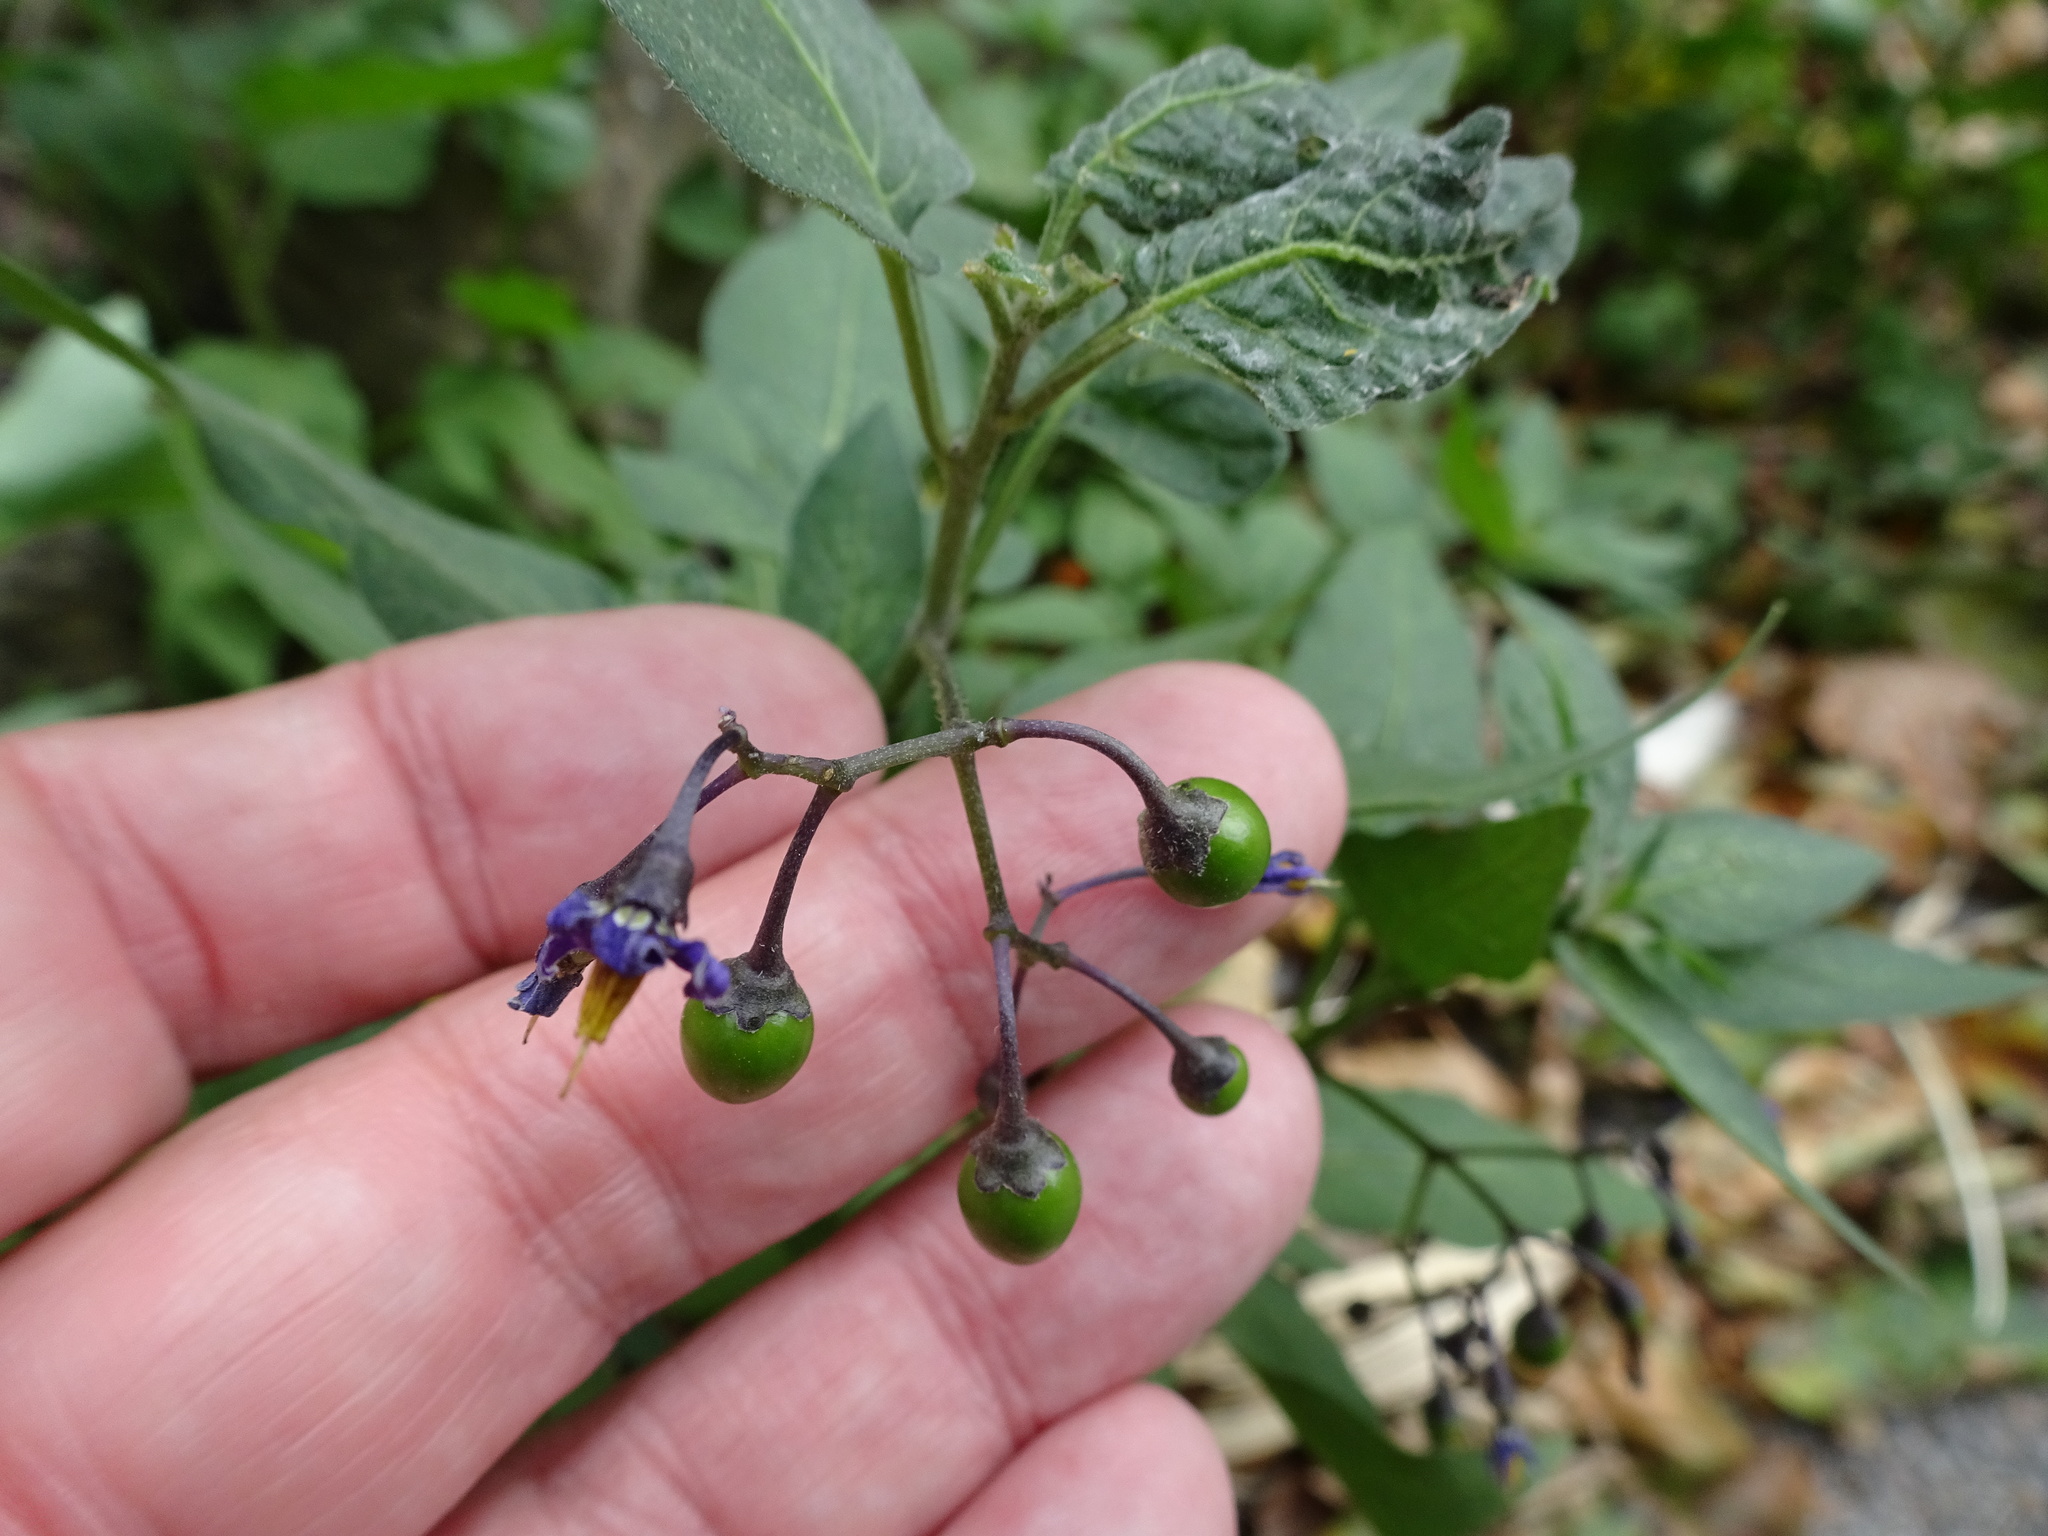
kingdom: Plantae
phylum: Tracheophyta
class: Magnoliopsida
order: Solanales
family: Solanaceae
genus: Solanum
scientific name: Solanum dulcamara
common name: Climbing nightshade
